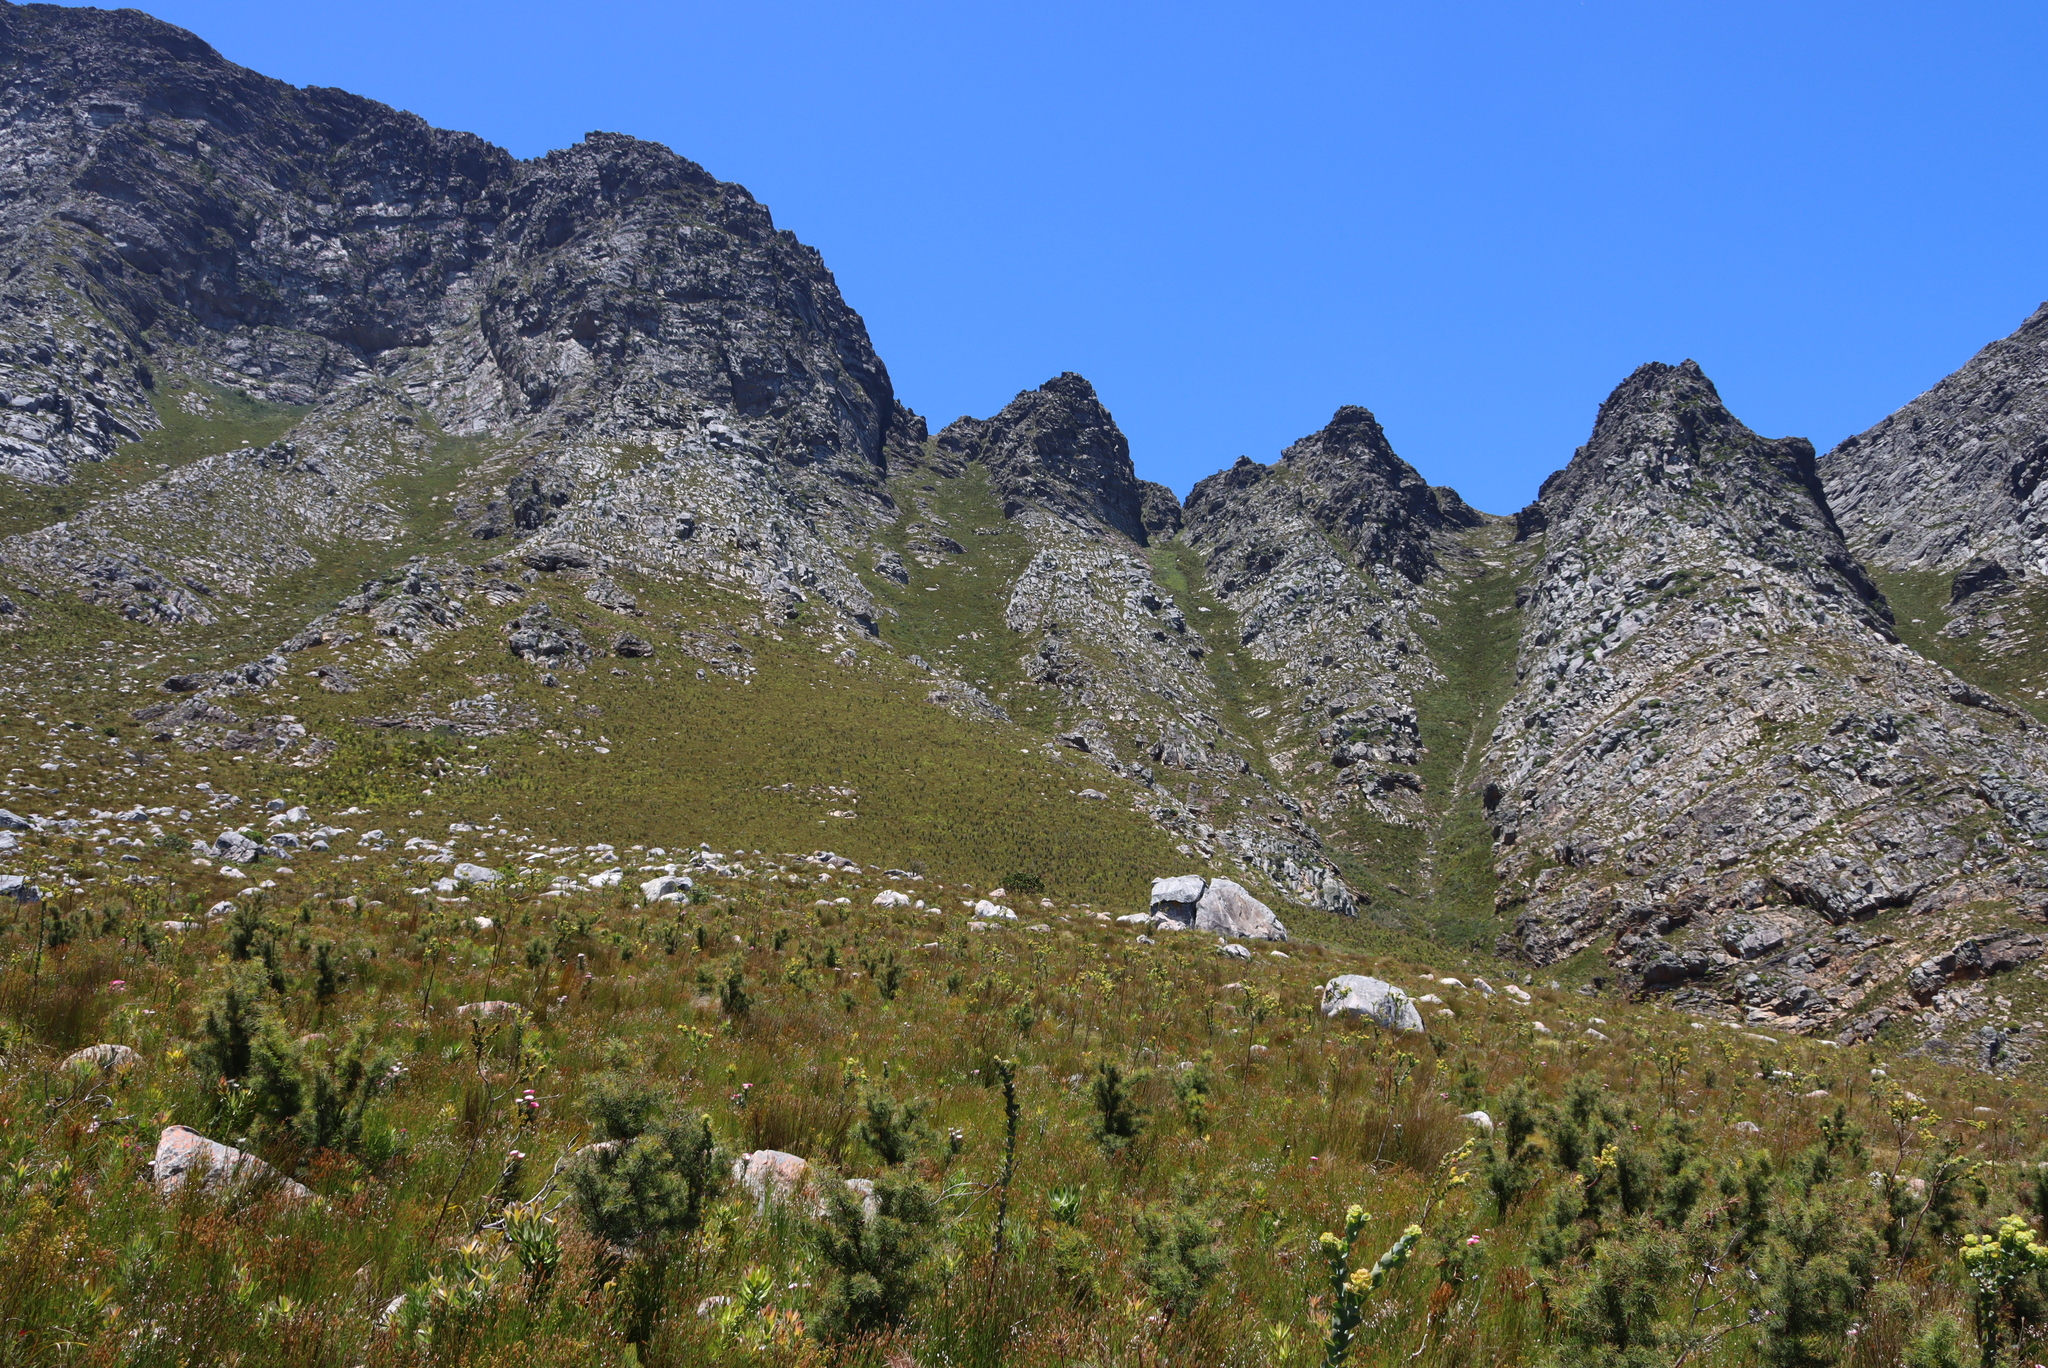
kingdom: Plantae
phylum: Tracheophyta
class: Magnoliopsida
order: Proteales
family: Proteaceae
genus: Hakea
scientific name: Hakea sericea
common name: Needle bush
